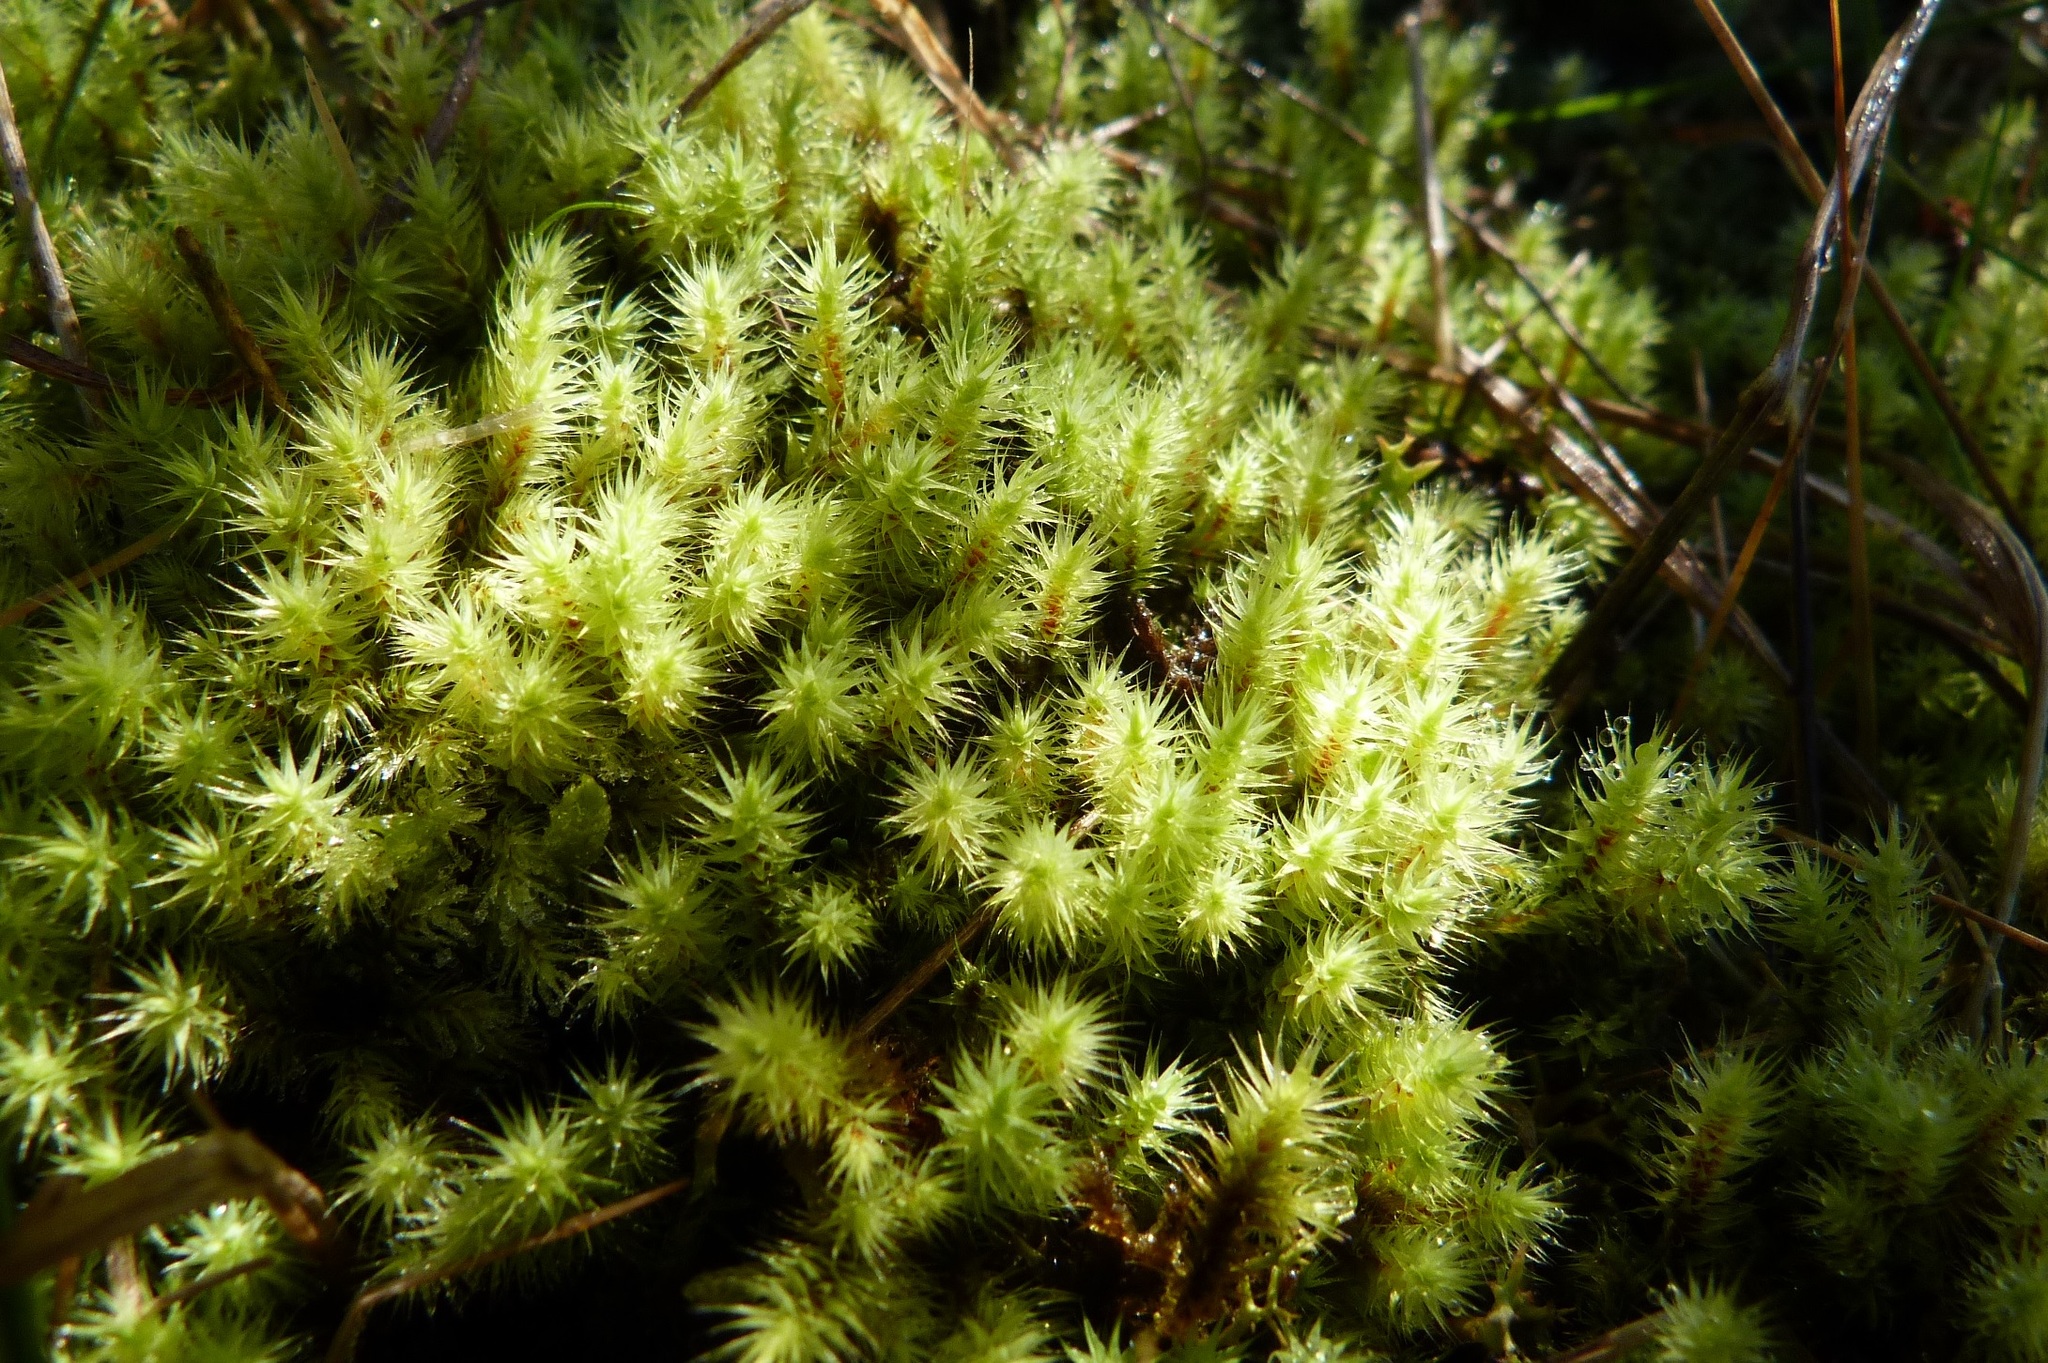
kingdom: Plantae
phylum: Bryophyta
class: Bryopsida
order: Bartramiales
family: Bartramiaceae
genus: Breutelia
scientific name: Breutelia affinis
